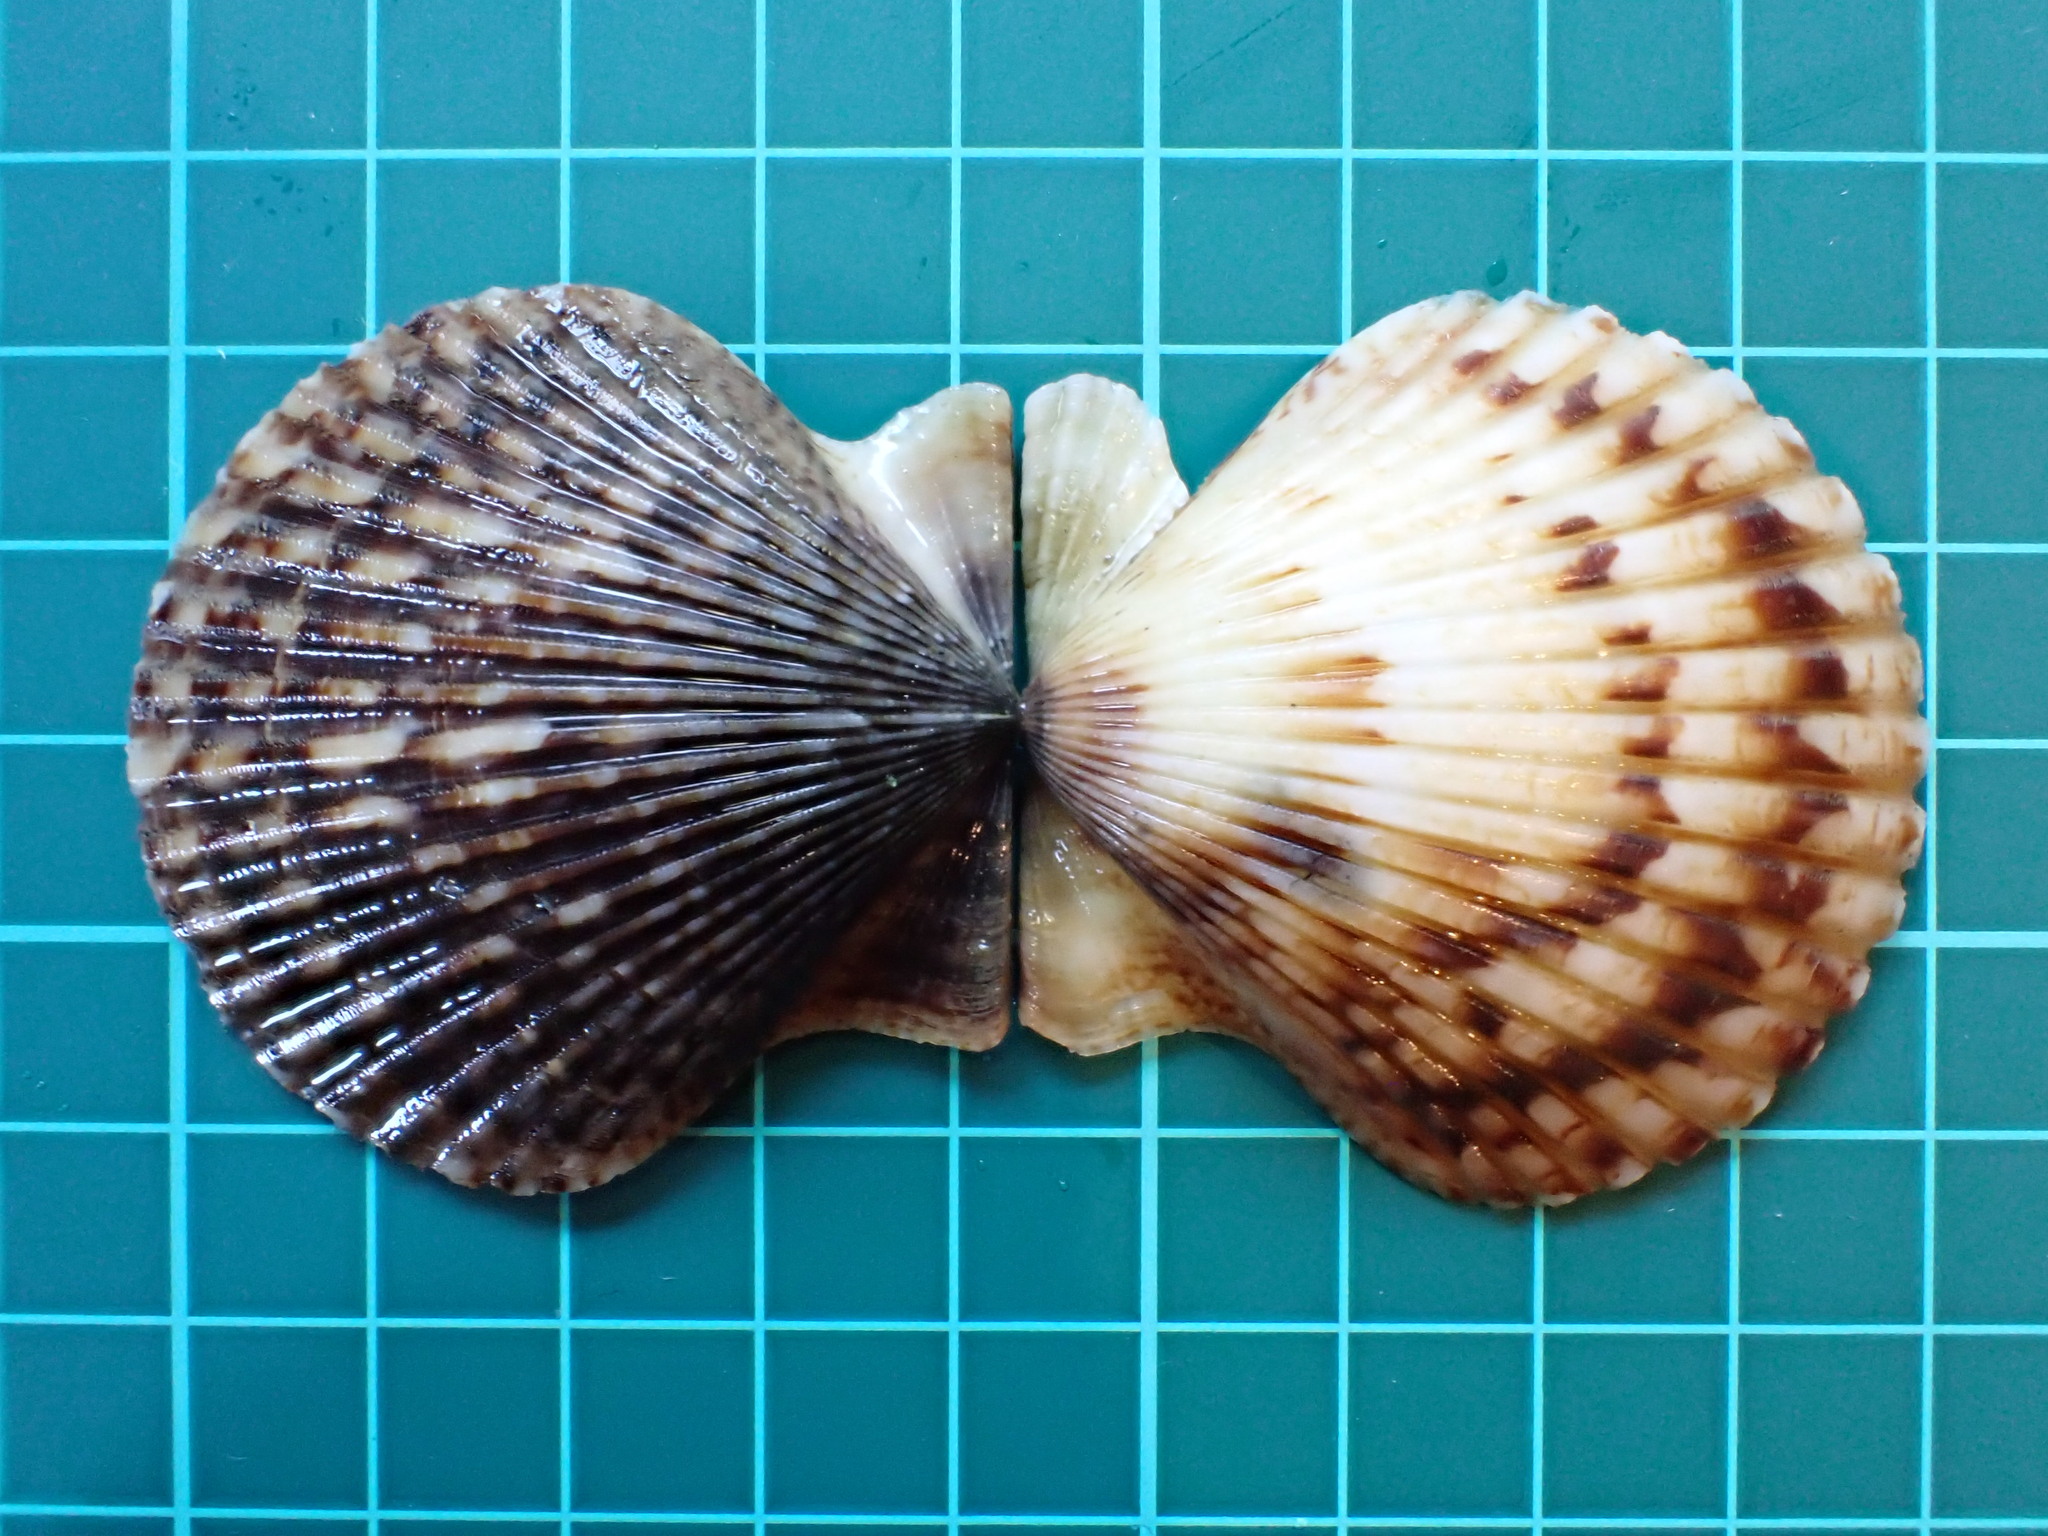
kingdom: Animalia
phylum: Mollusca
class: Bivalvia
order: Pectinida
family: Pectinidae
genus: Argopecten
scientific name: Argopecten ventricosus
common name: Catarina scallop
